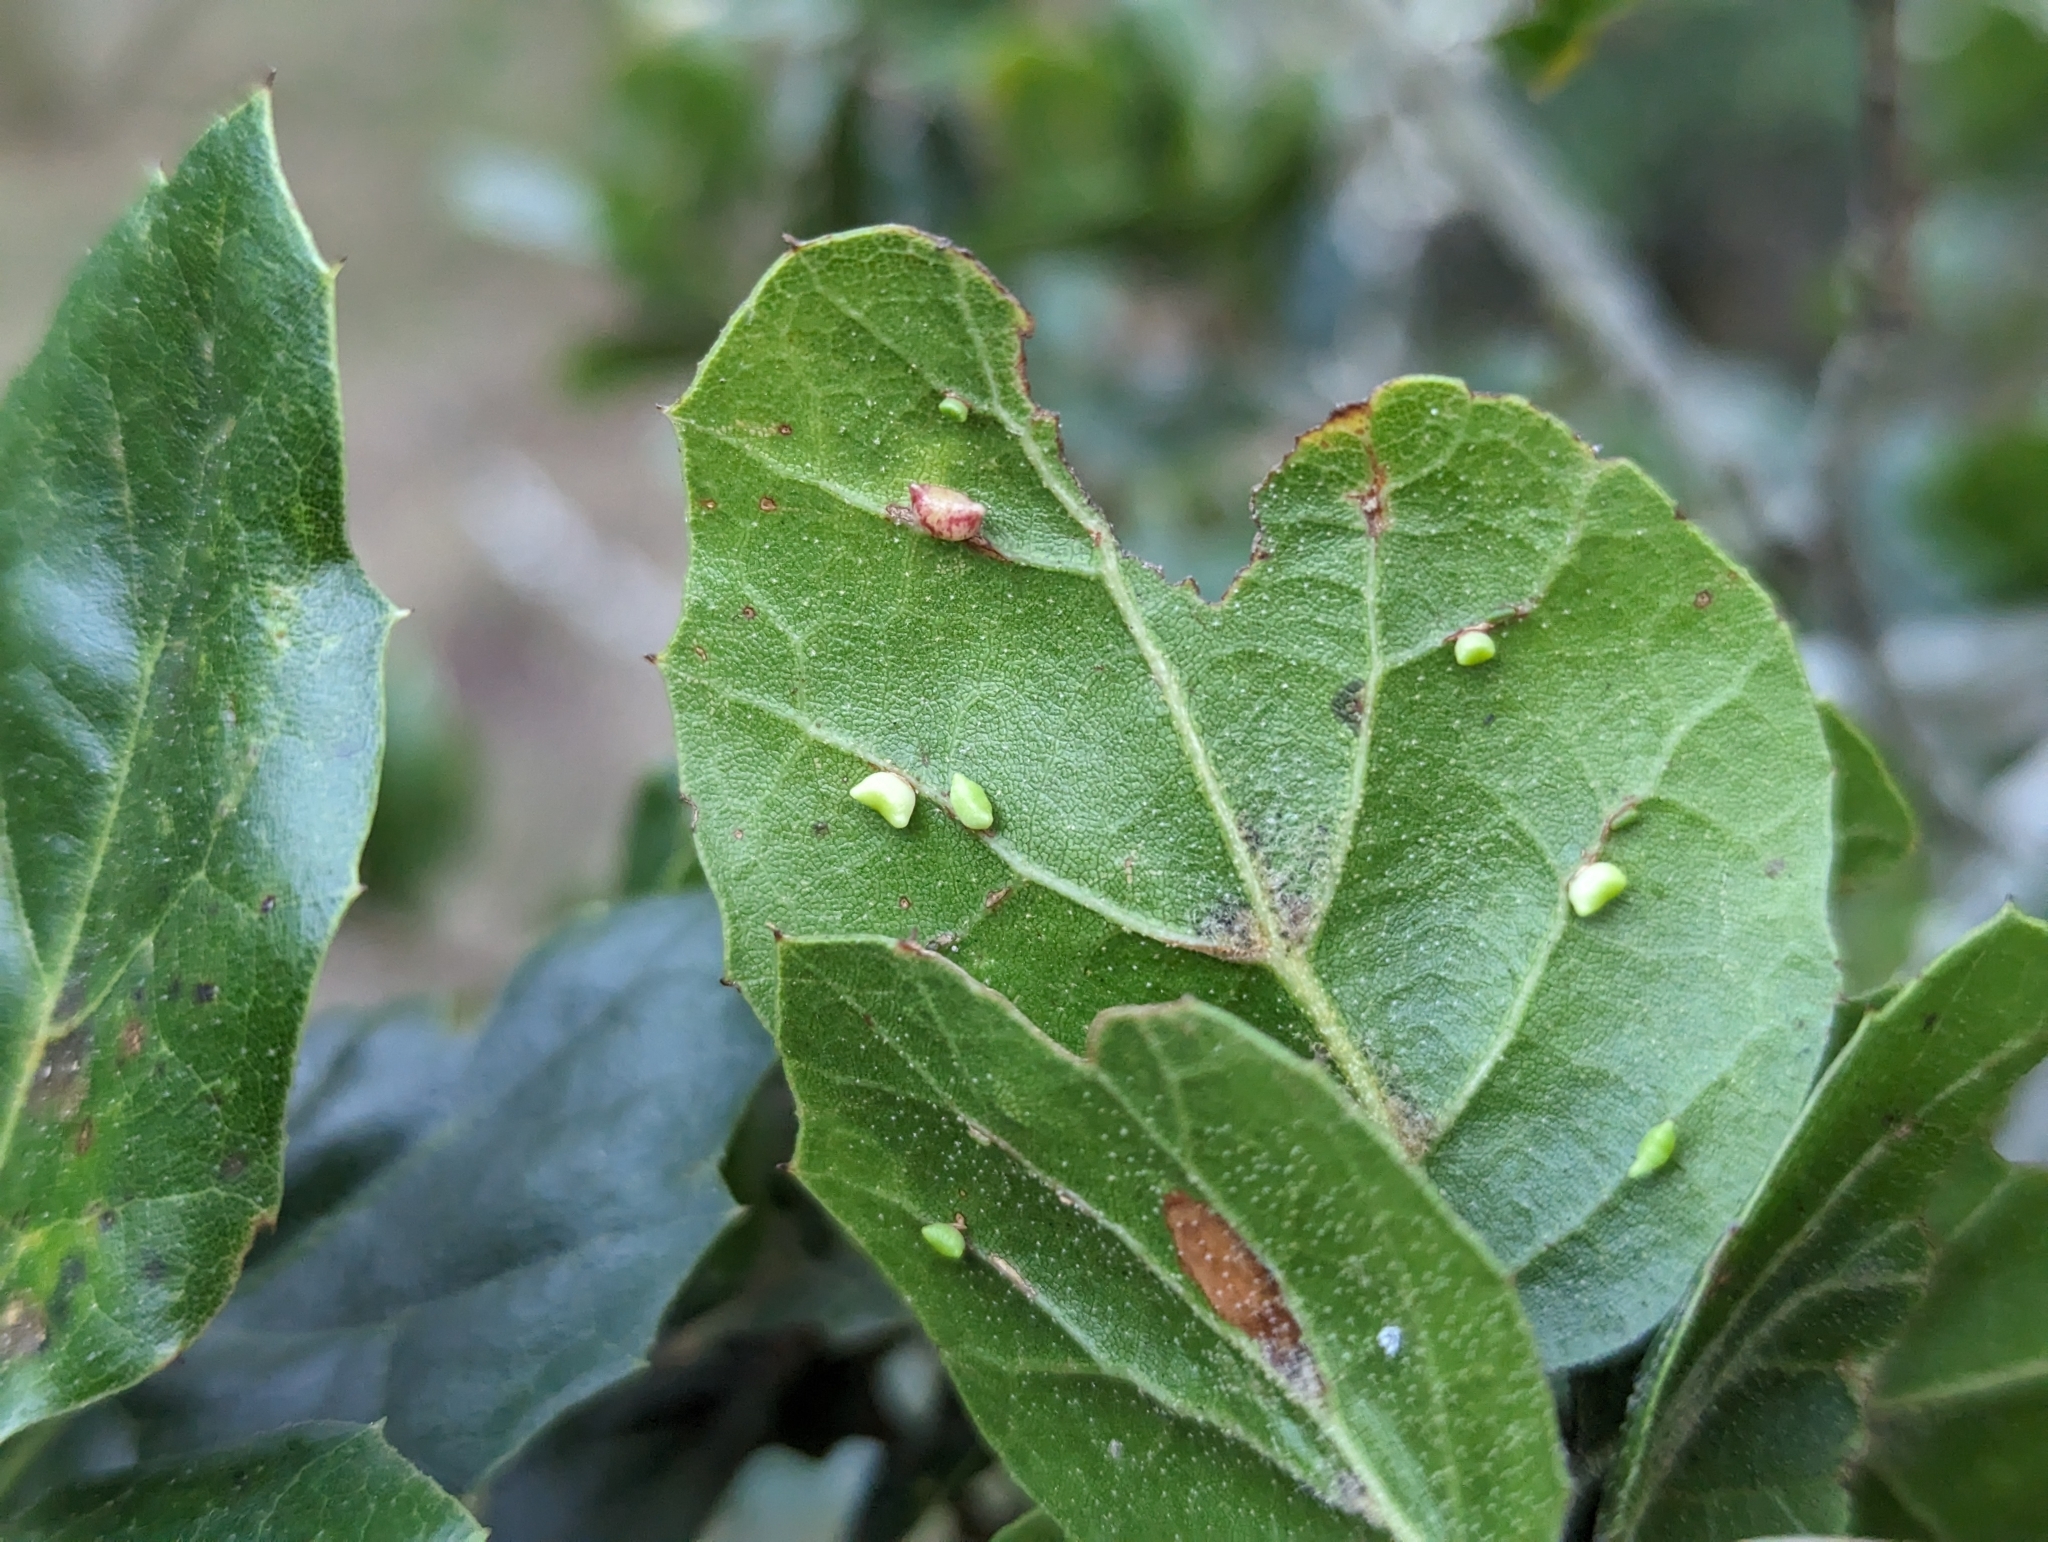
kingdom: Plantae
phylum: Tracheophyta
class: Magnoliopsida
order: Fagales
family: Fagaceae
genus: Quercus
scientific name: Quercus agrifolia
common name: California live oak
